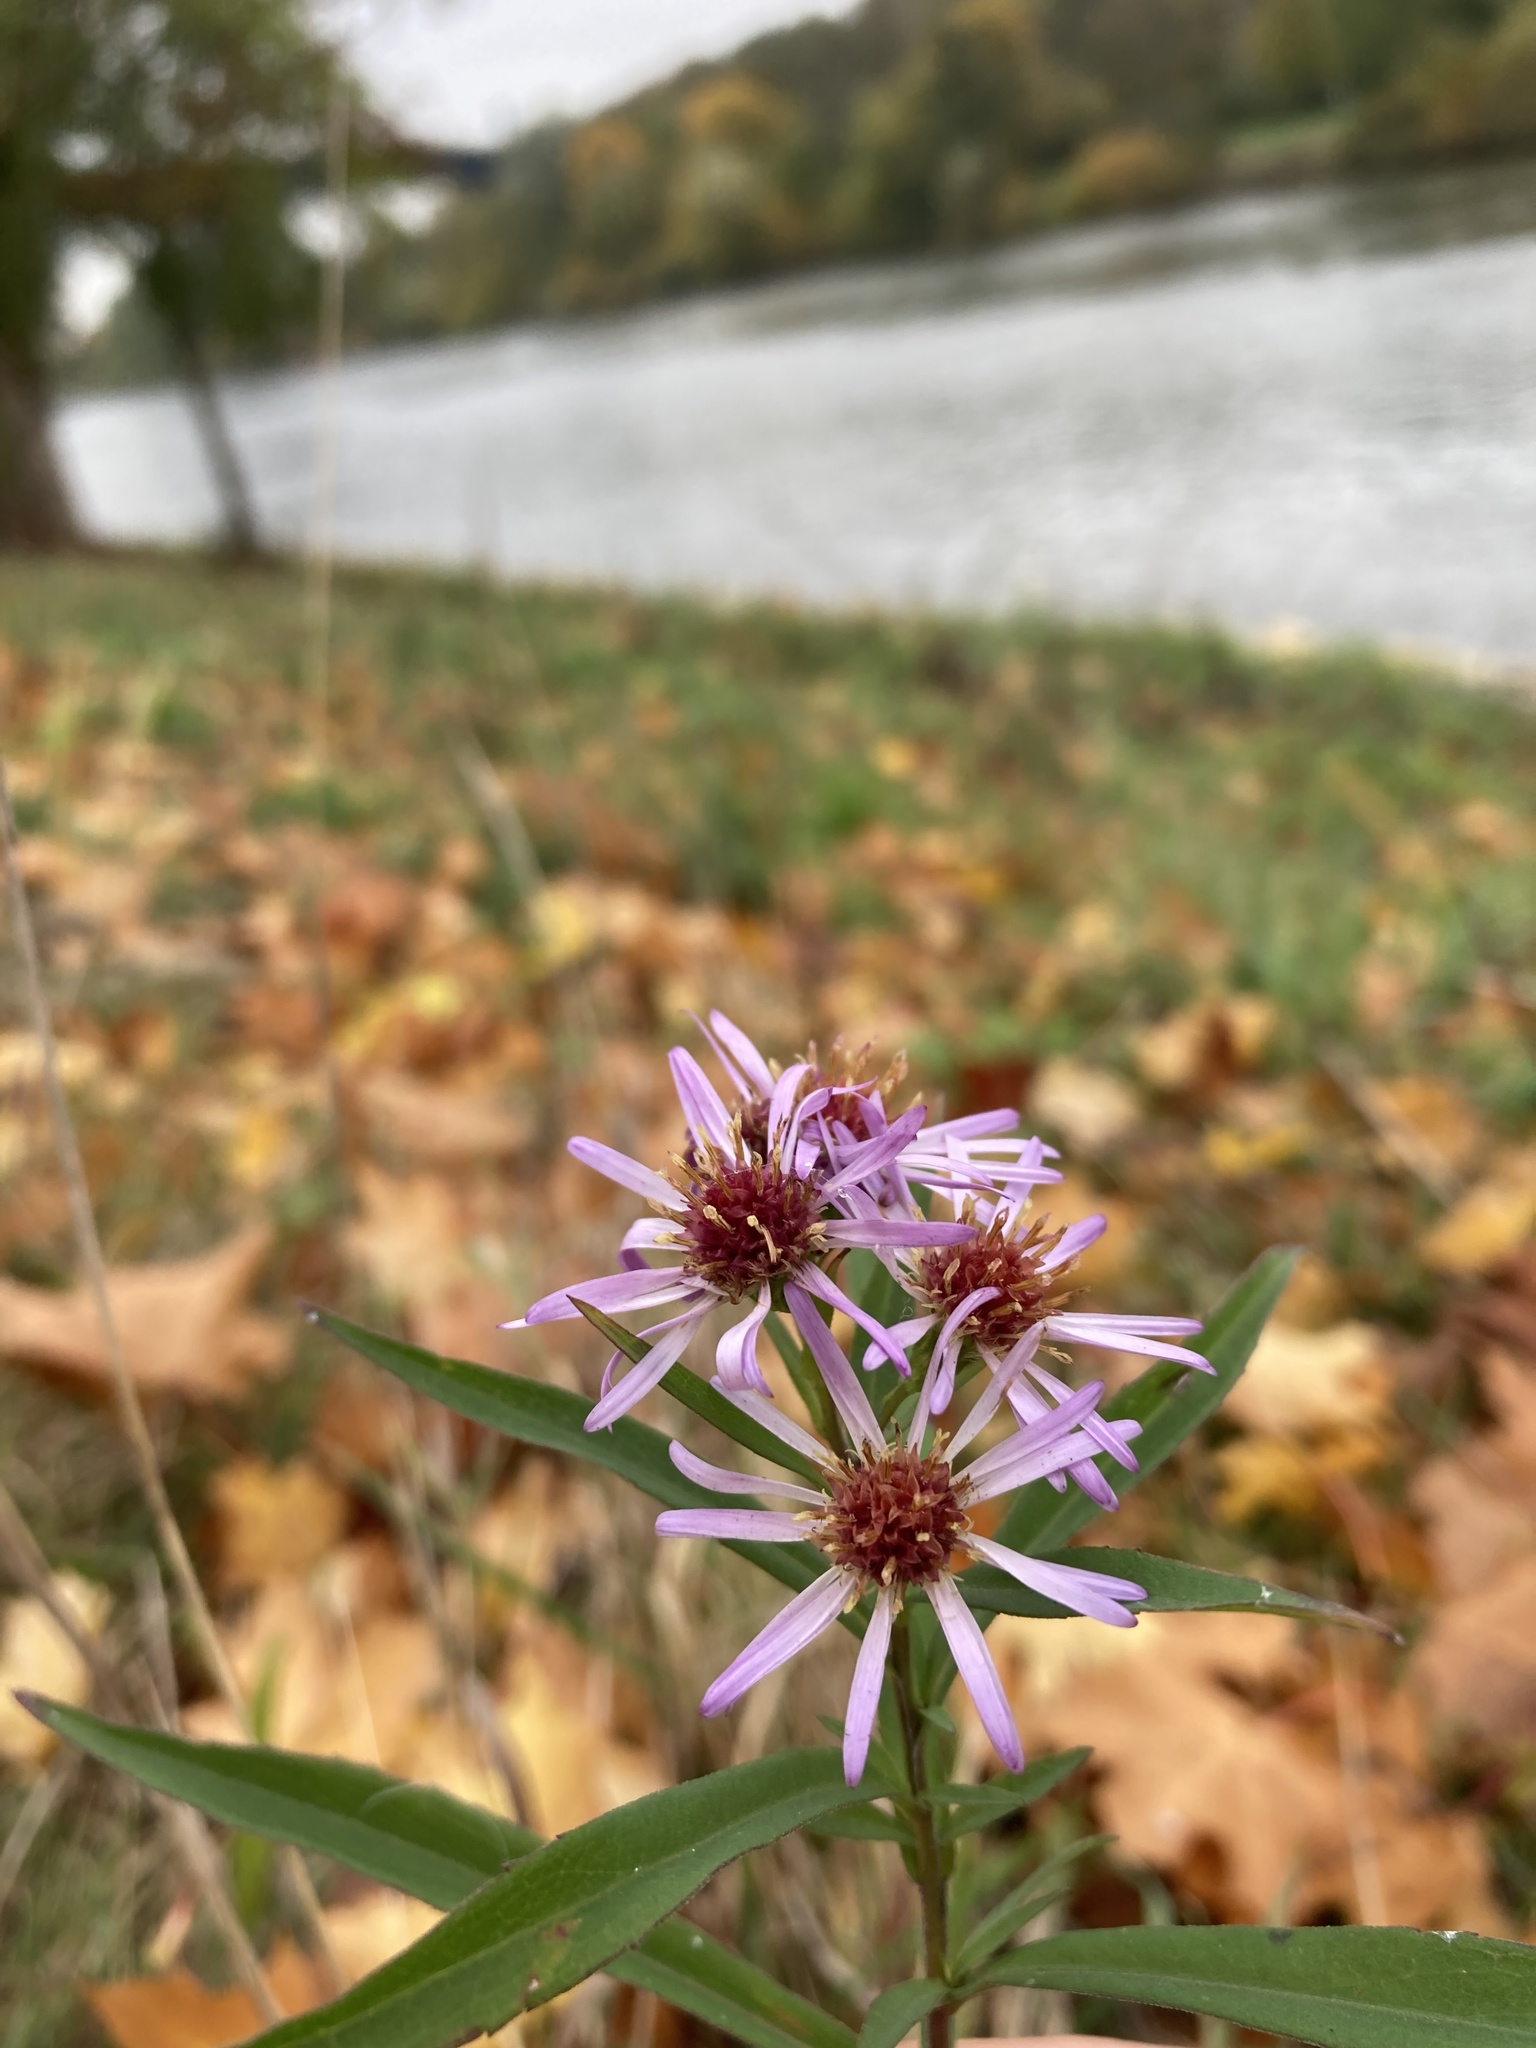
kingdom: Plantae
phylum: Tracheophyta
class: Magnoliopsida
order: Asterales
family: Asteraceae
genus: Symphyotrichum
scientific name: Symphyotrichum lanceolatum
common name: Panicled aster
